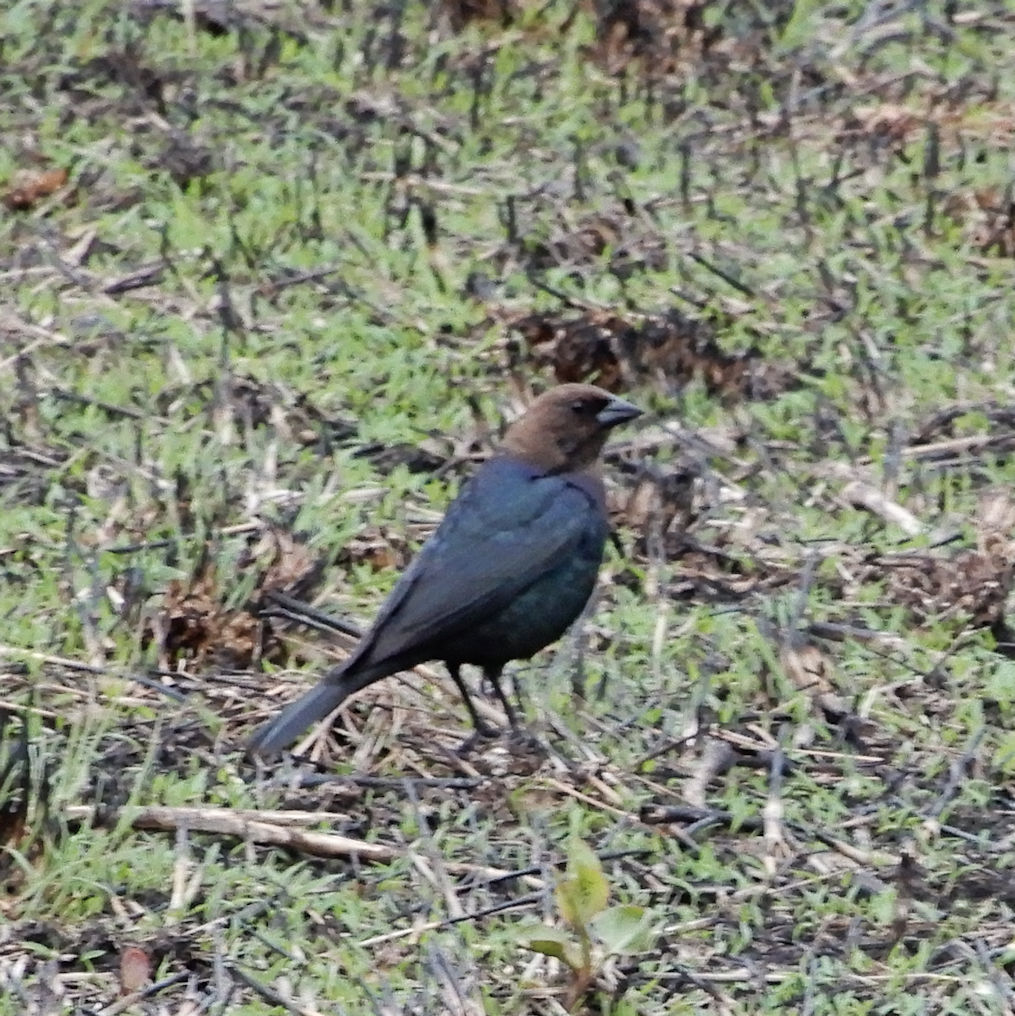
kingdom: Animalia
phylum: Chordata
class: Aves
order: Passeriformes
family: Icteridae
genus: Molothrus
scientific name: Molothrus ater
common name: Brown-headed cowbird
